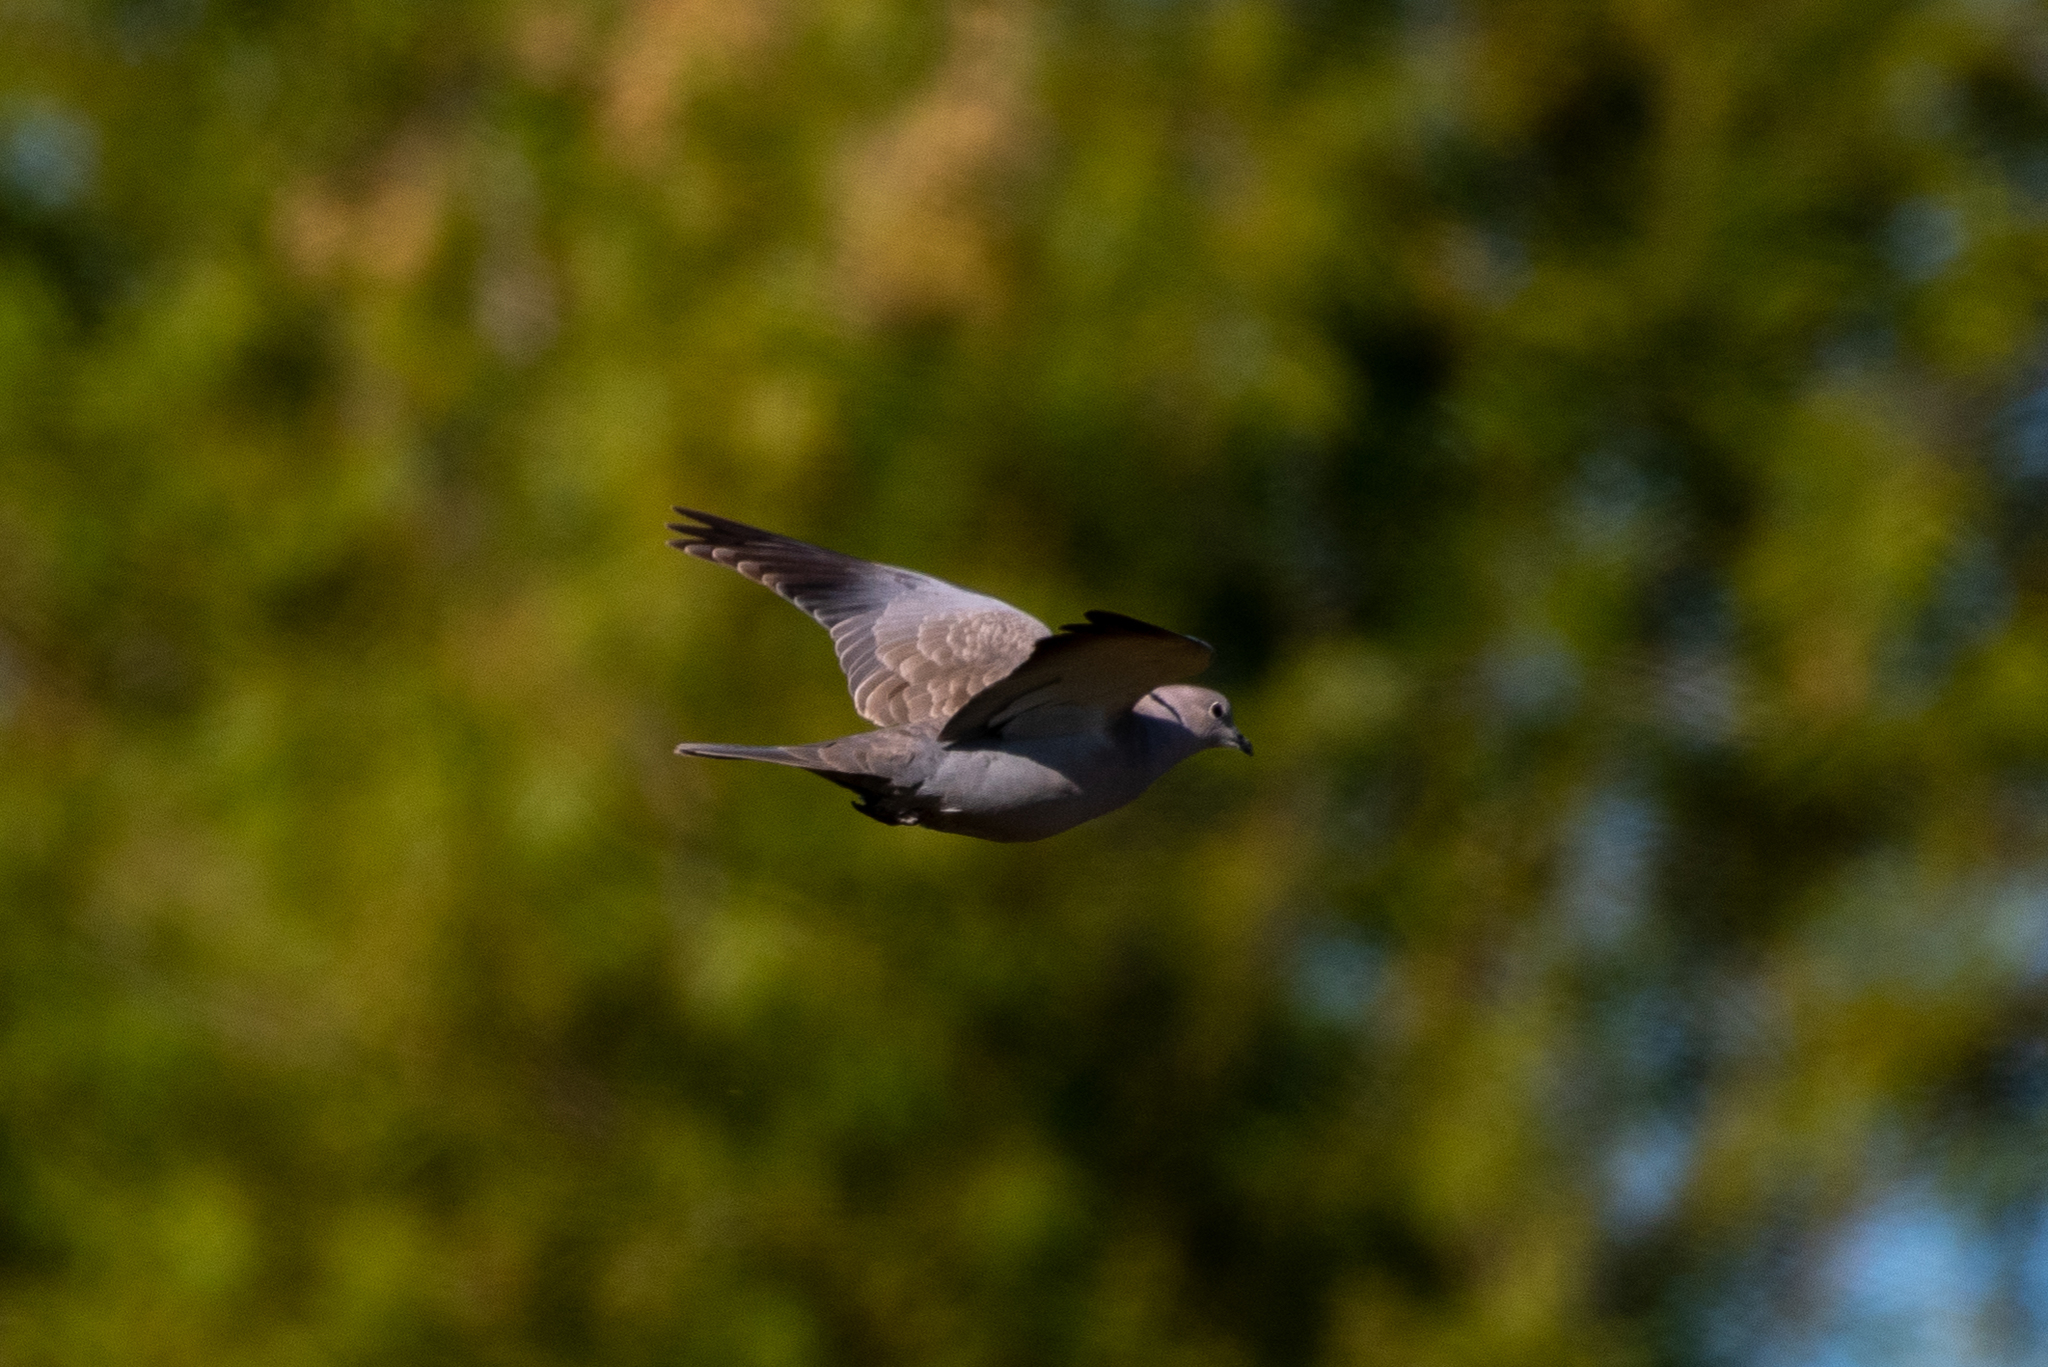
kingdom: Animalia
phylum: Chordata
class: Aves
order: Columbiformes
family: Columbidae
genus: Streptopelia
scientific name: Streptopelia decaocto
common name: Eurasian collared dove
